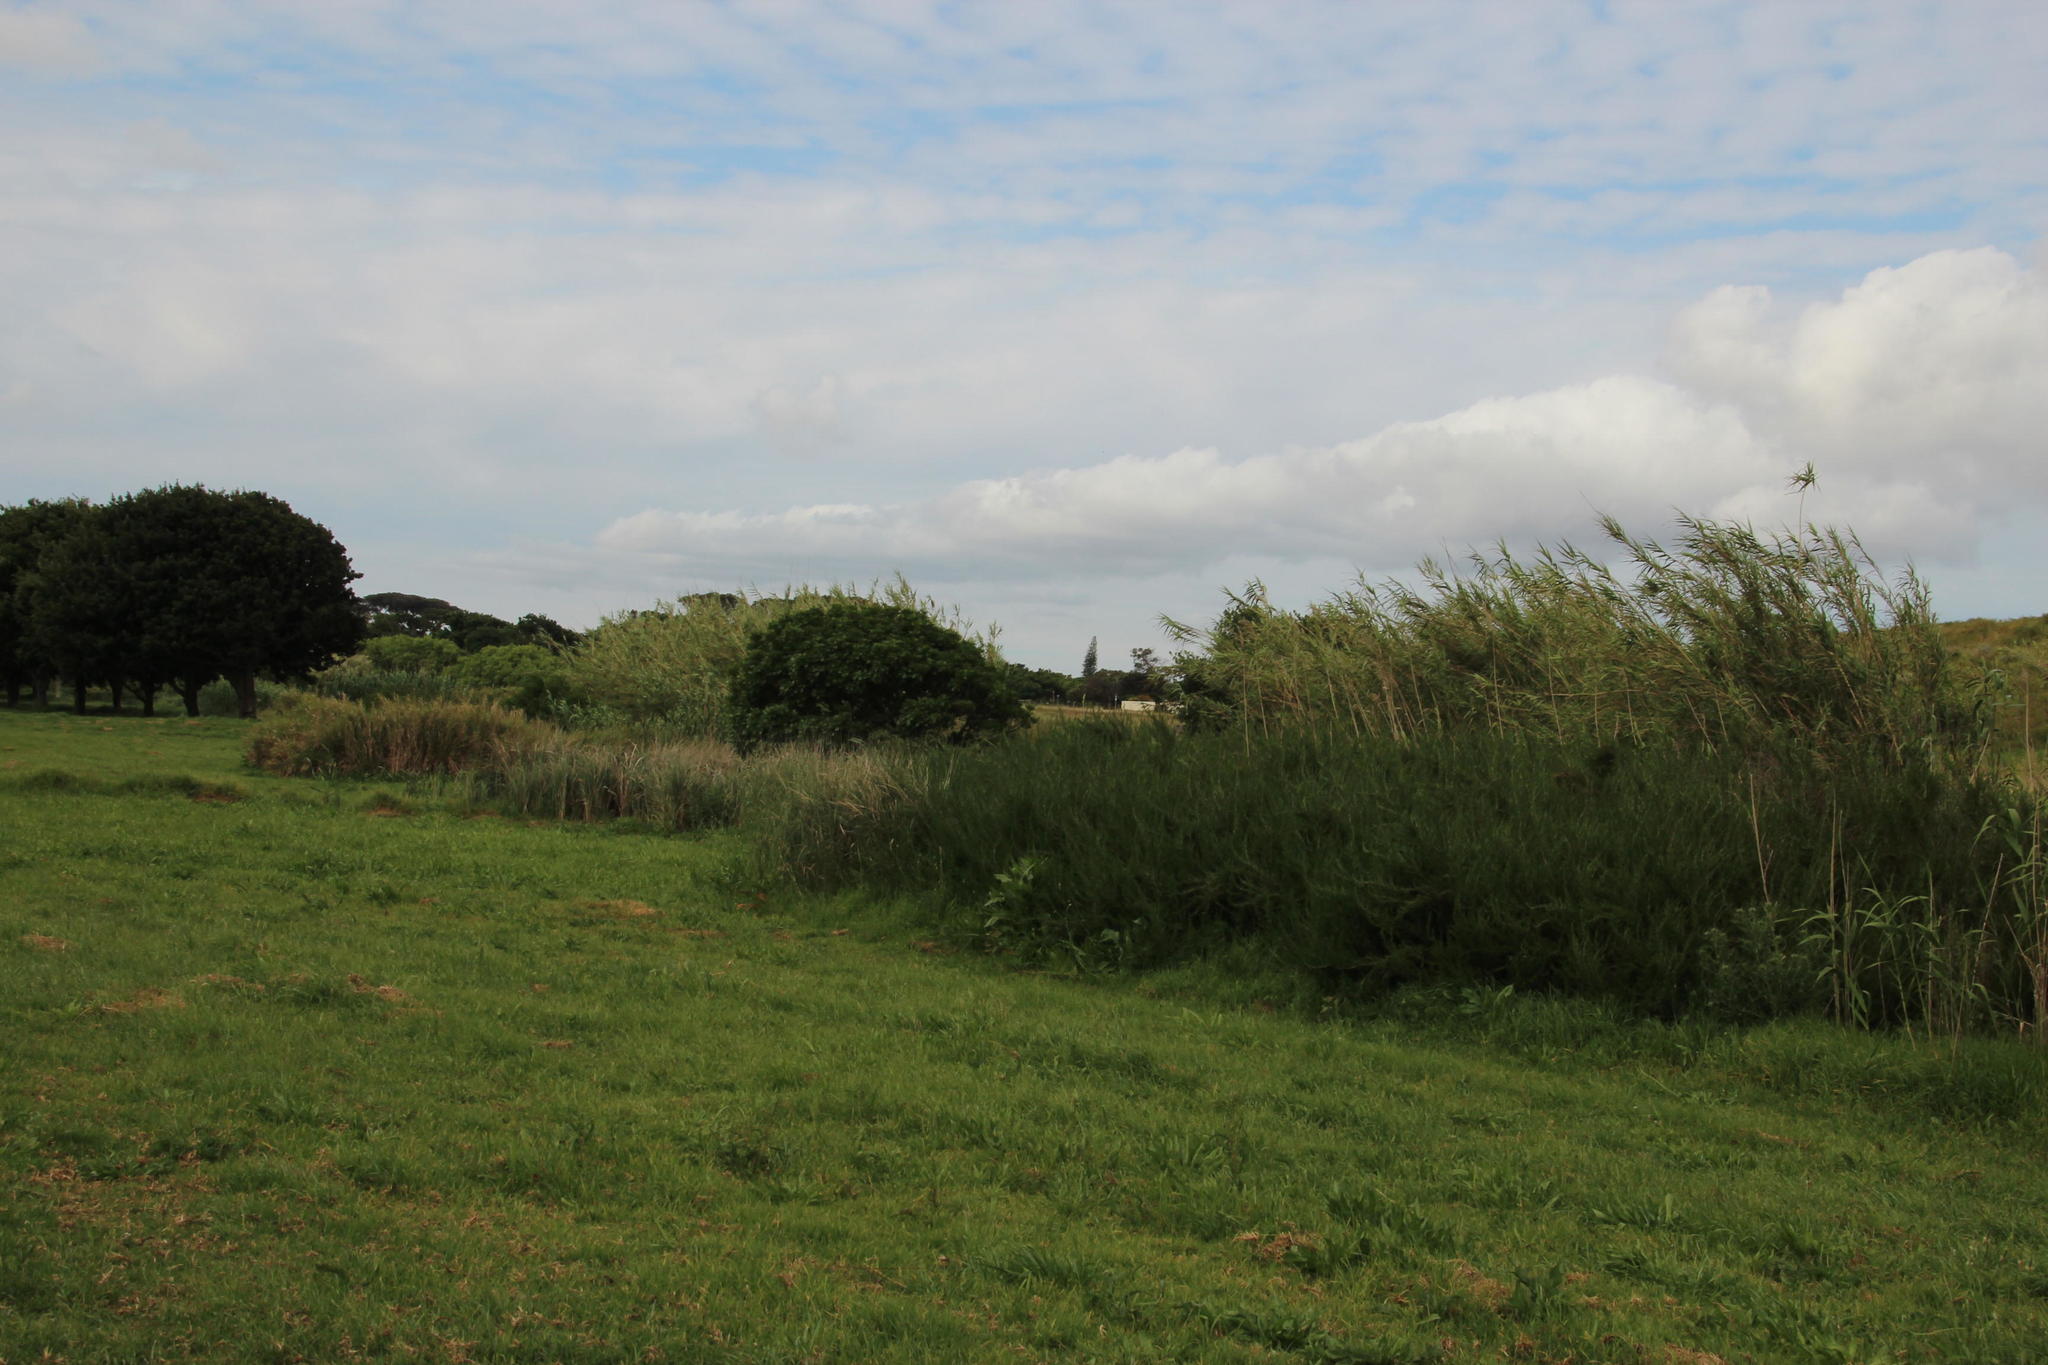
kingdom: Plantae
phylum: Tracheophyta
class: Liliopsida
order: Poales
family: Poaceae
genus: Arundo
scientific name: Arundo donax
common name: Giant reed
